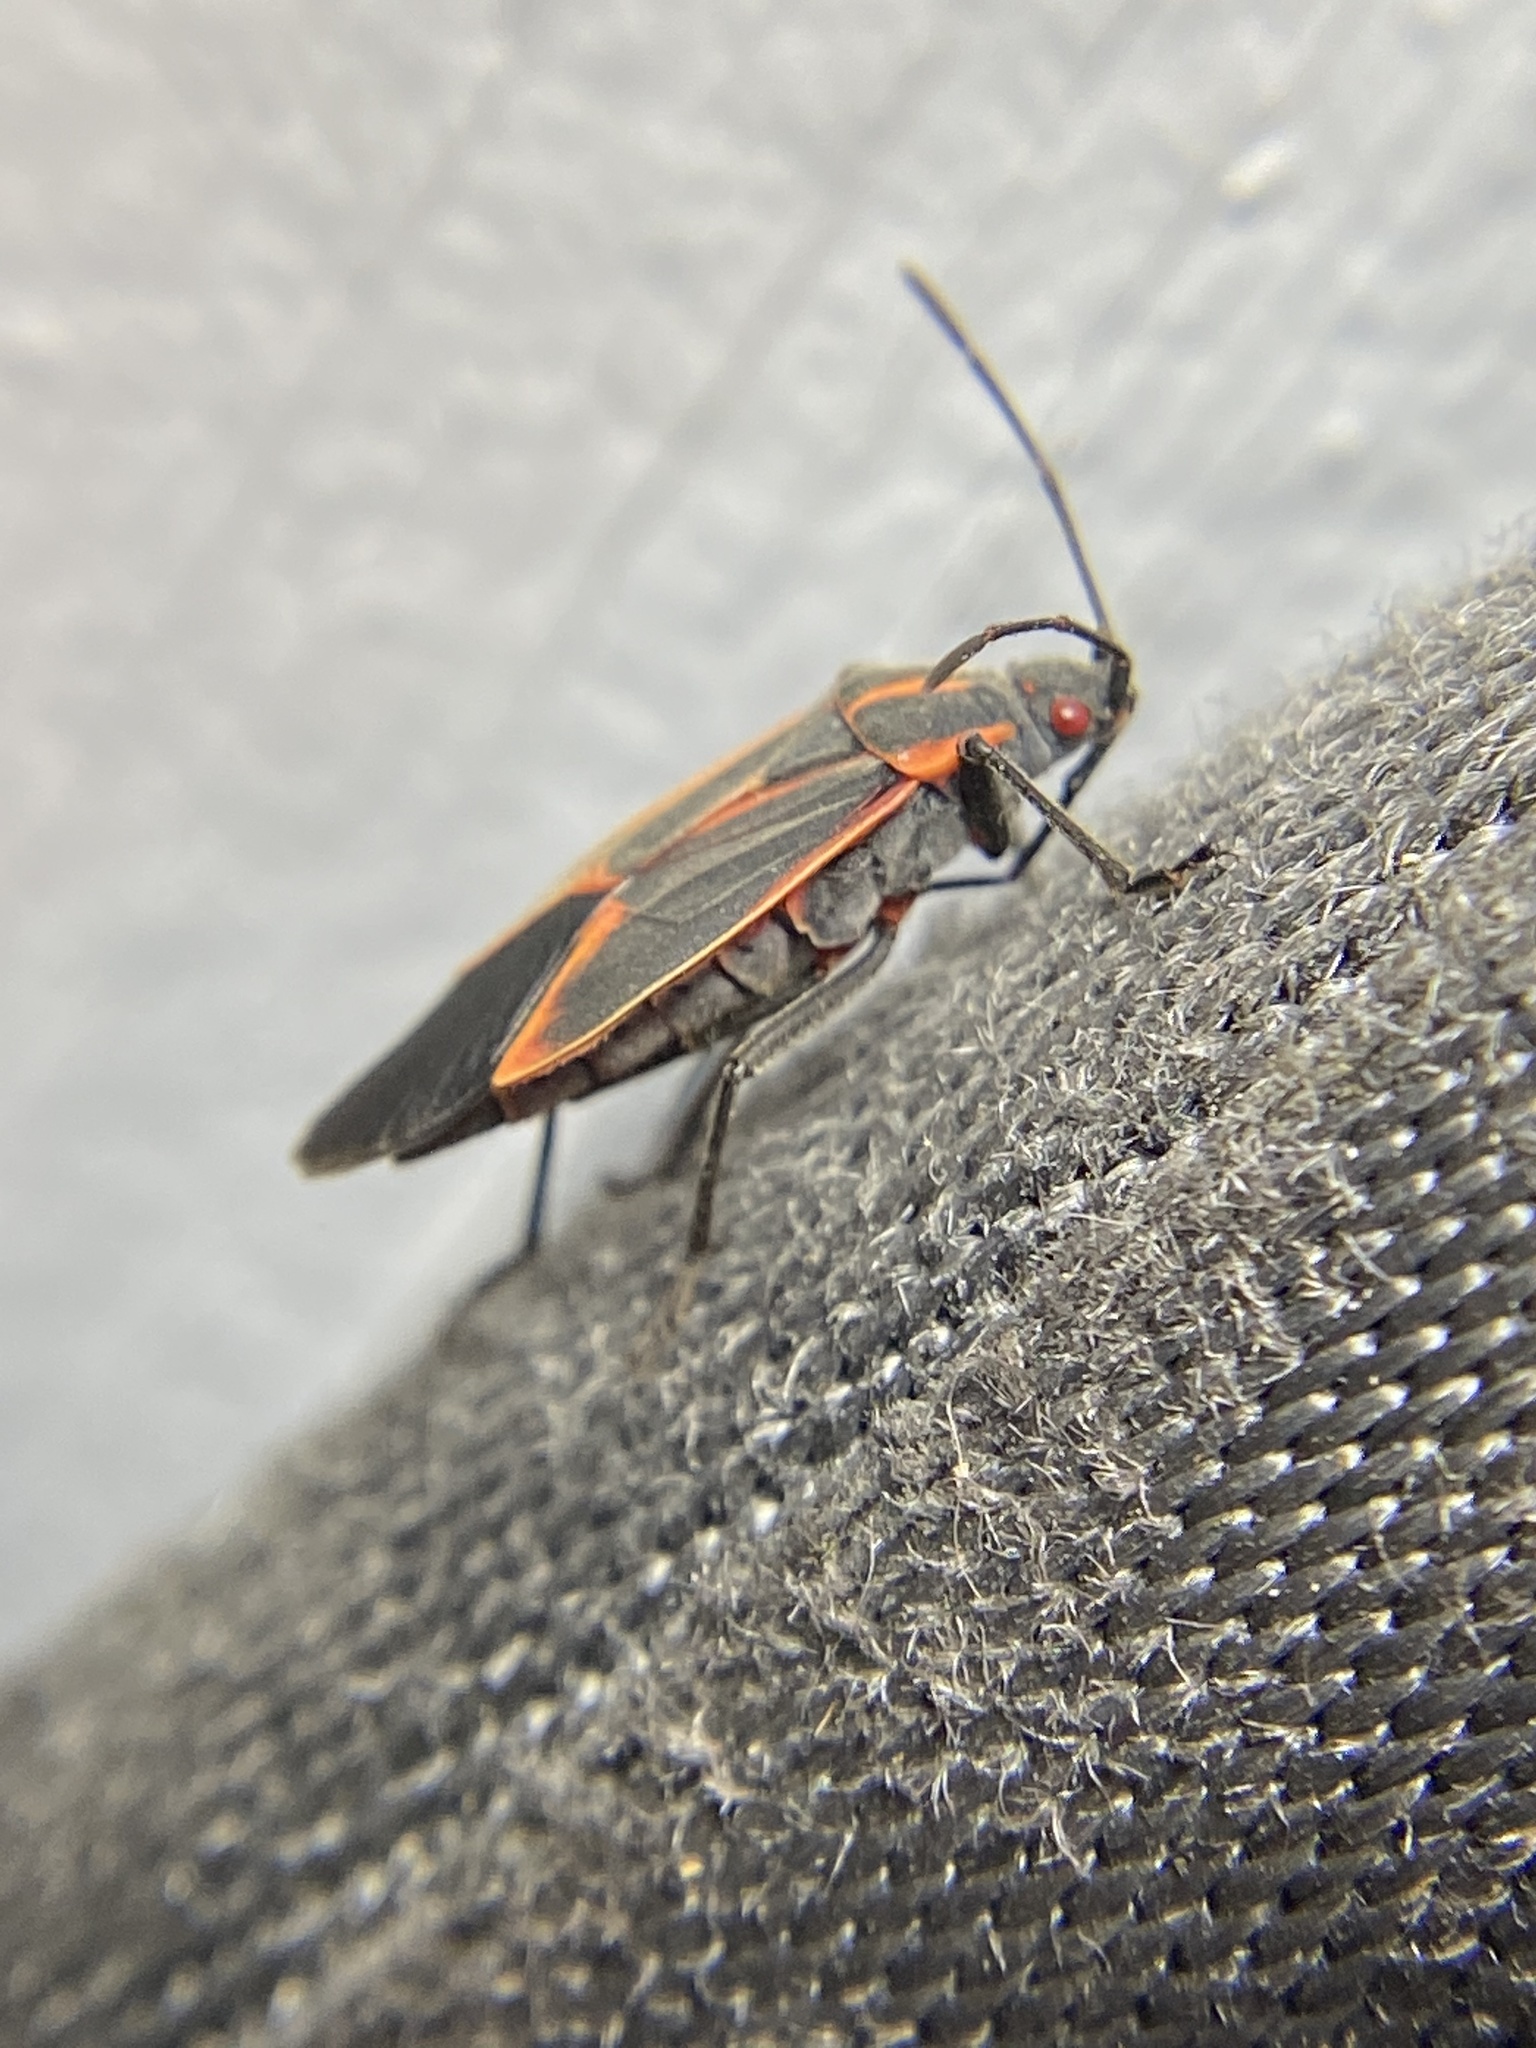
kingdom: Animalia
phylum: Arthropoda
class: Insecta
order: Hemiptera
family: Rhopalidae
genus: Boisea
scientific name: Boisea trivittata
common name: Boxelder bug
